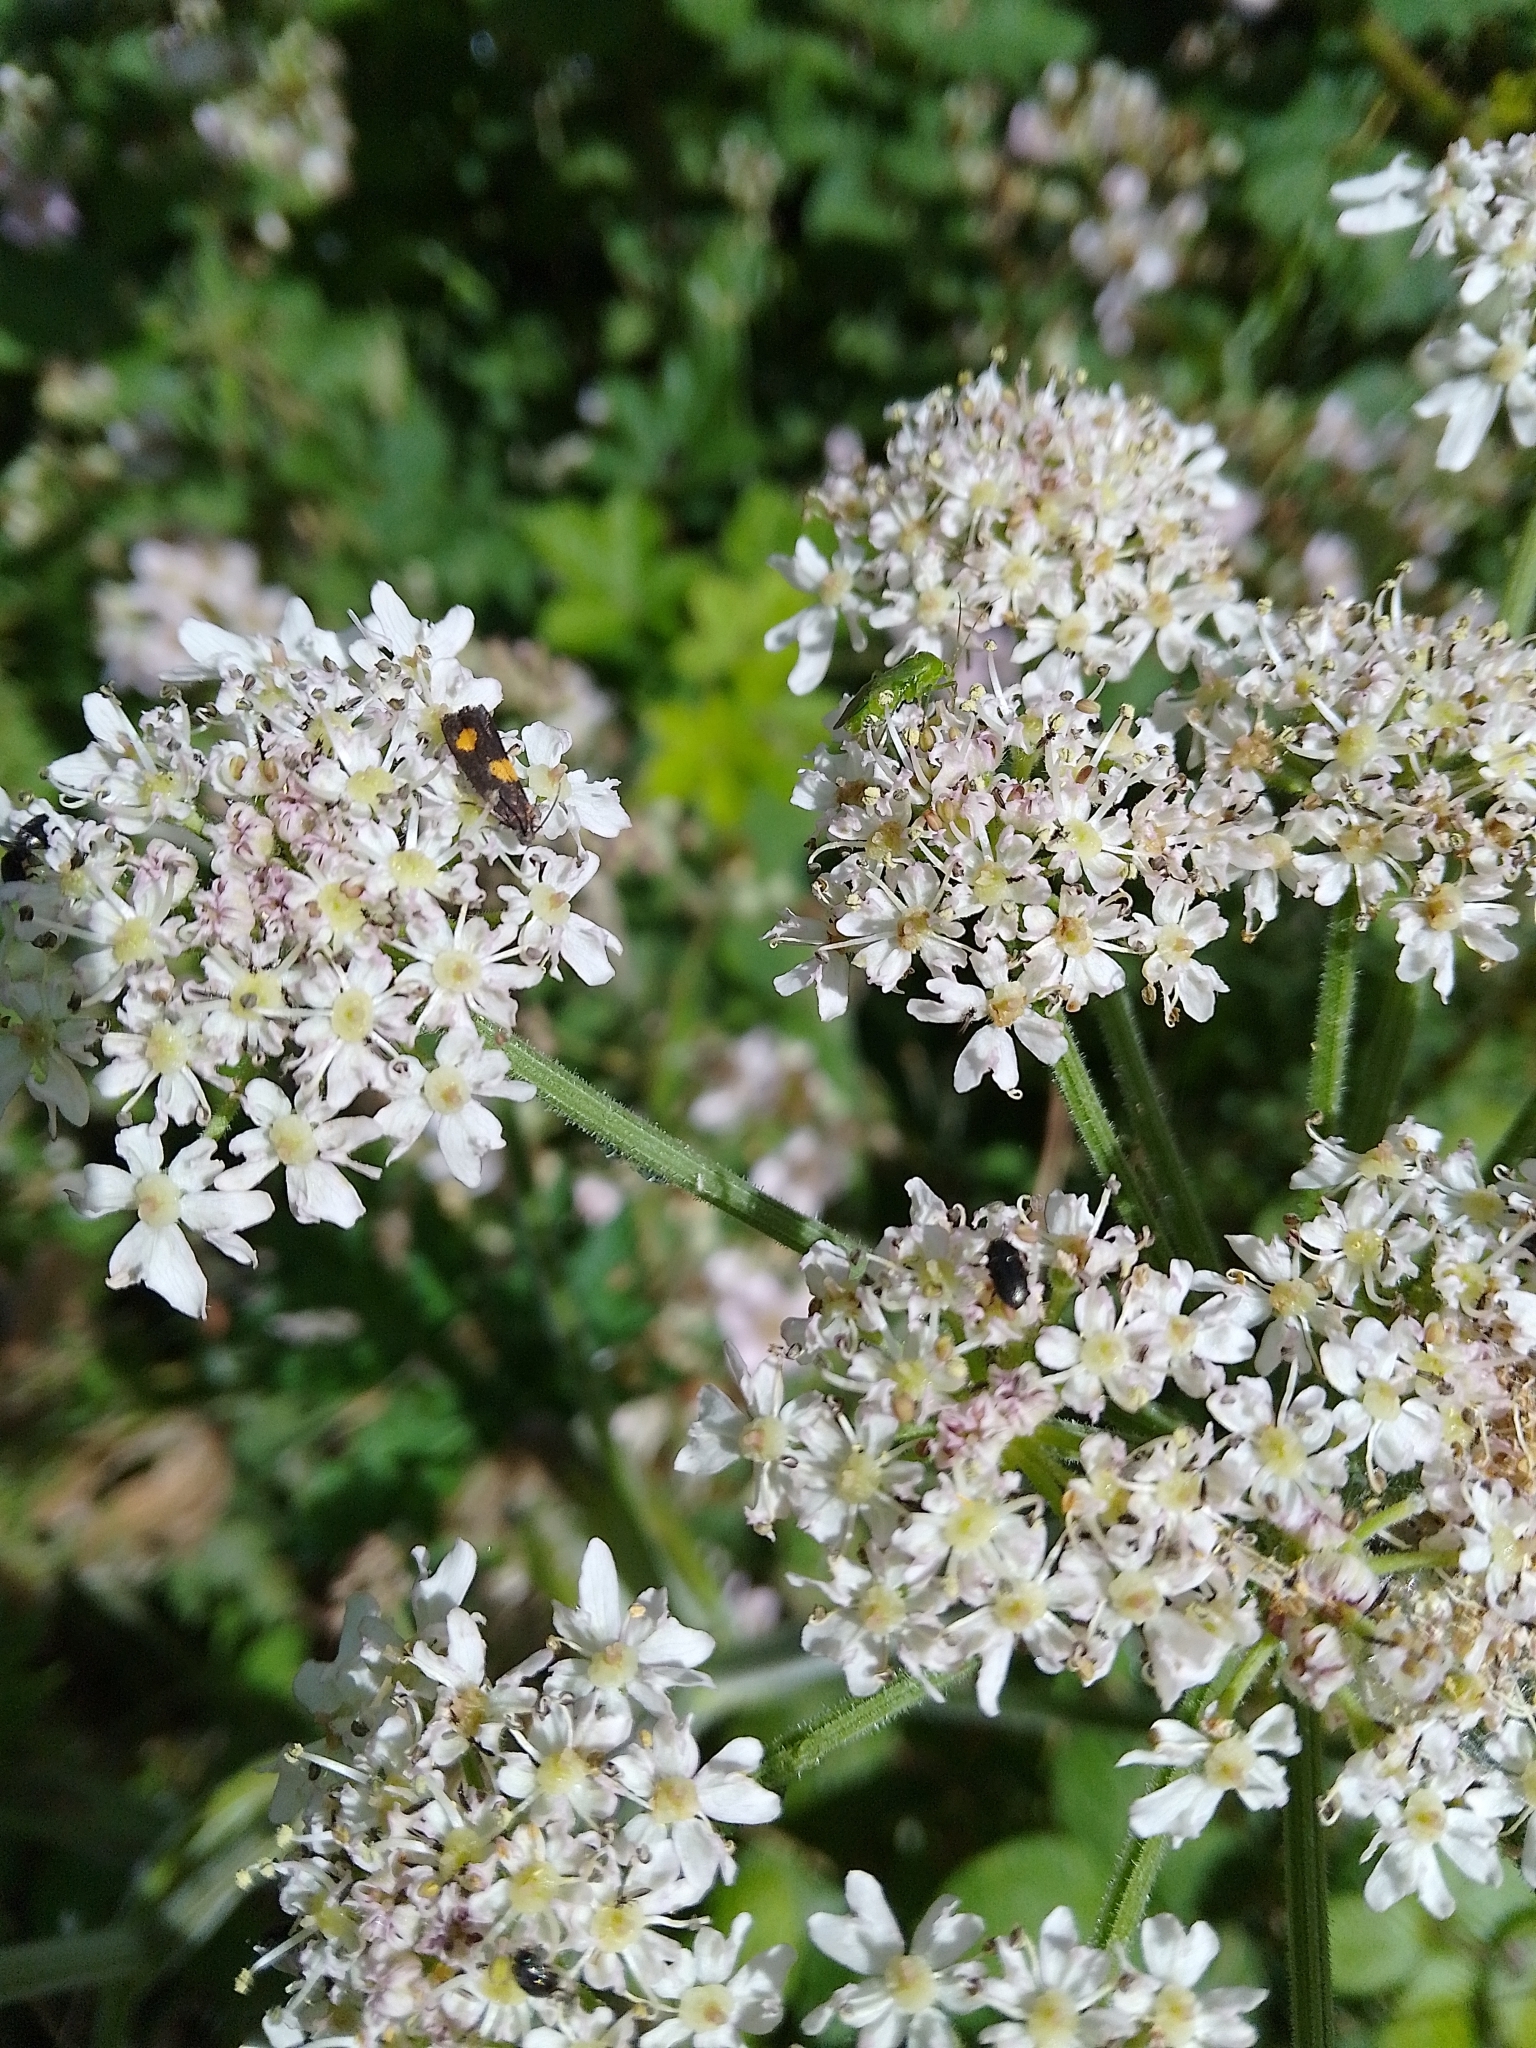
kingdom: Animalia
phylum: Arthropoda
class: Insecta
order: Lepidoptera
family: Tortricidae
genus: Pammene
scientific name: Pammene aurana
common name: Orange-spot piercer
